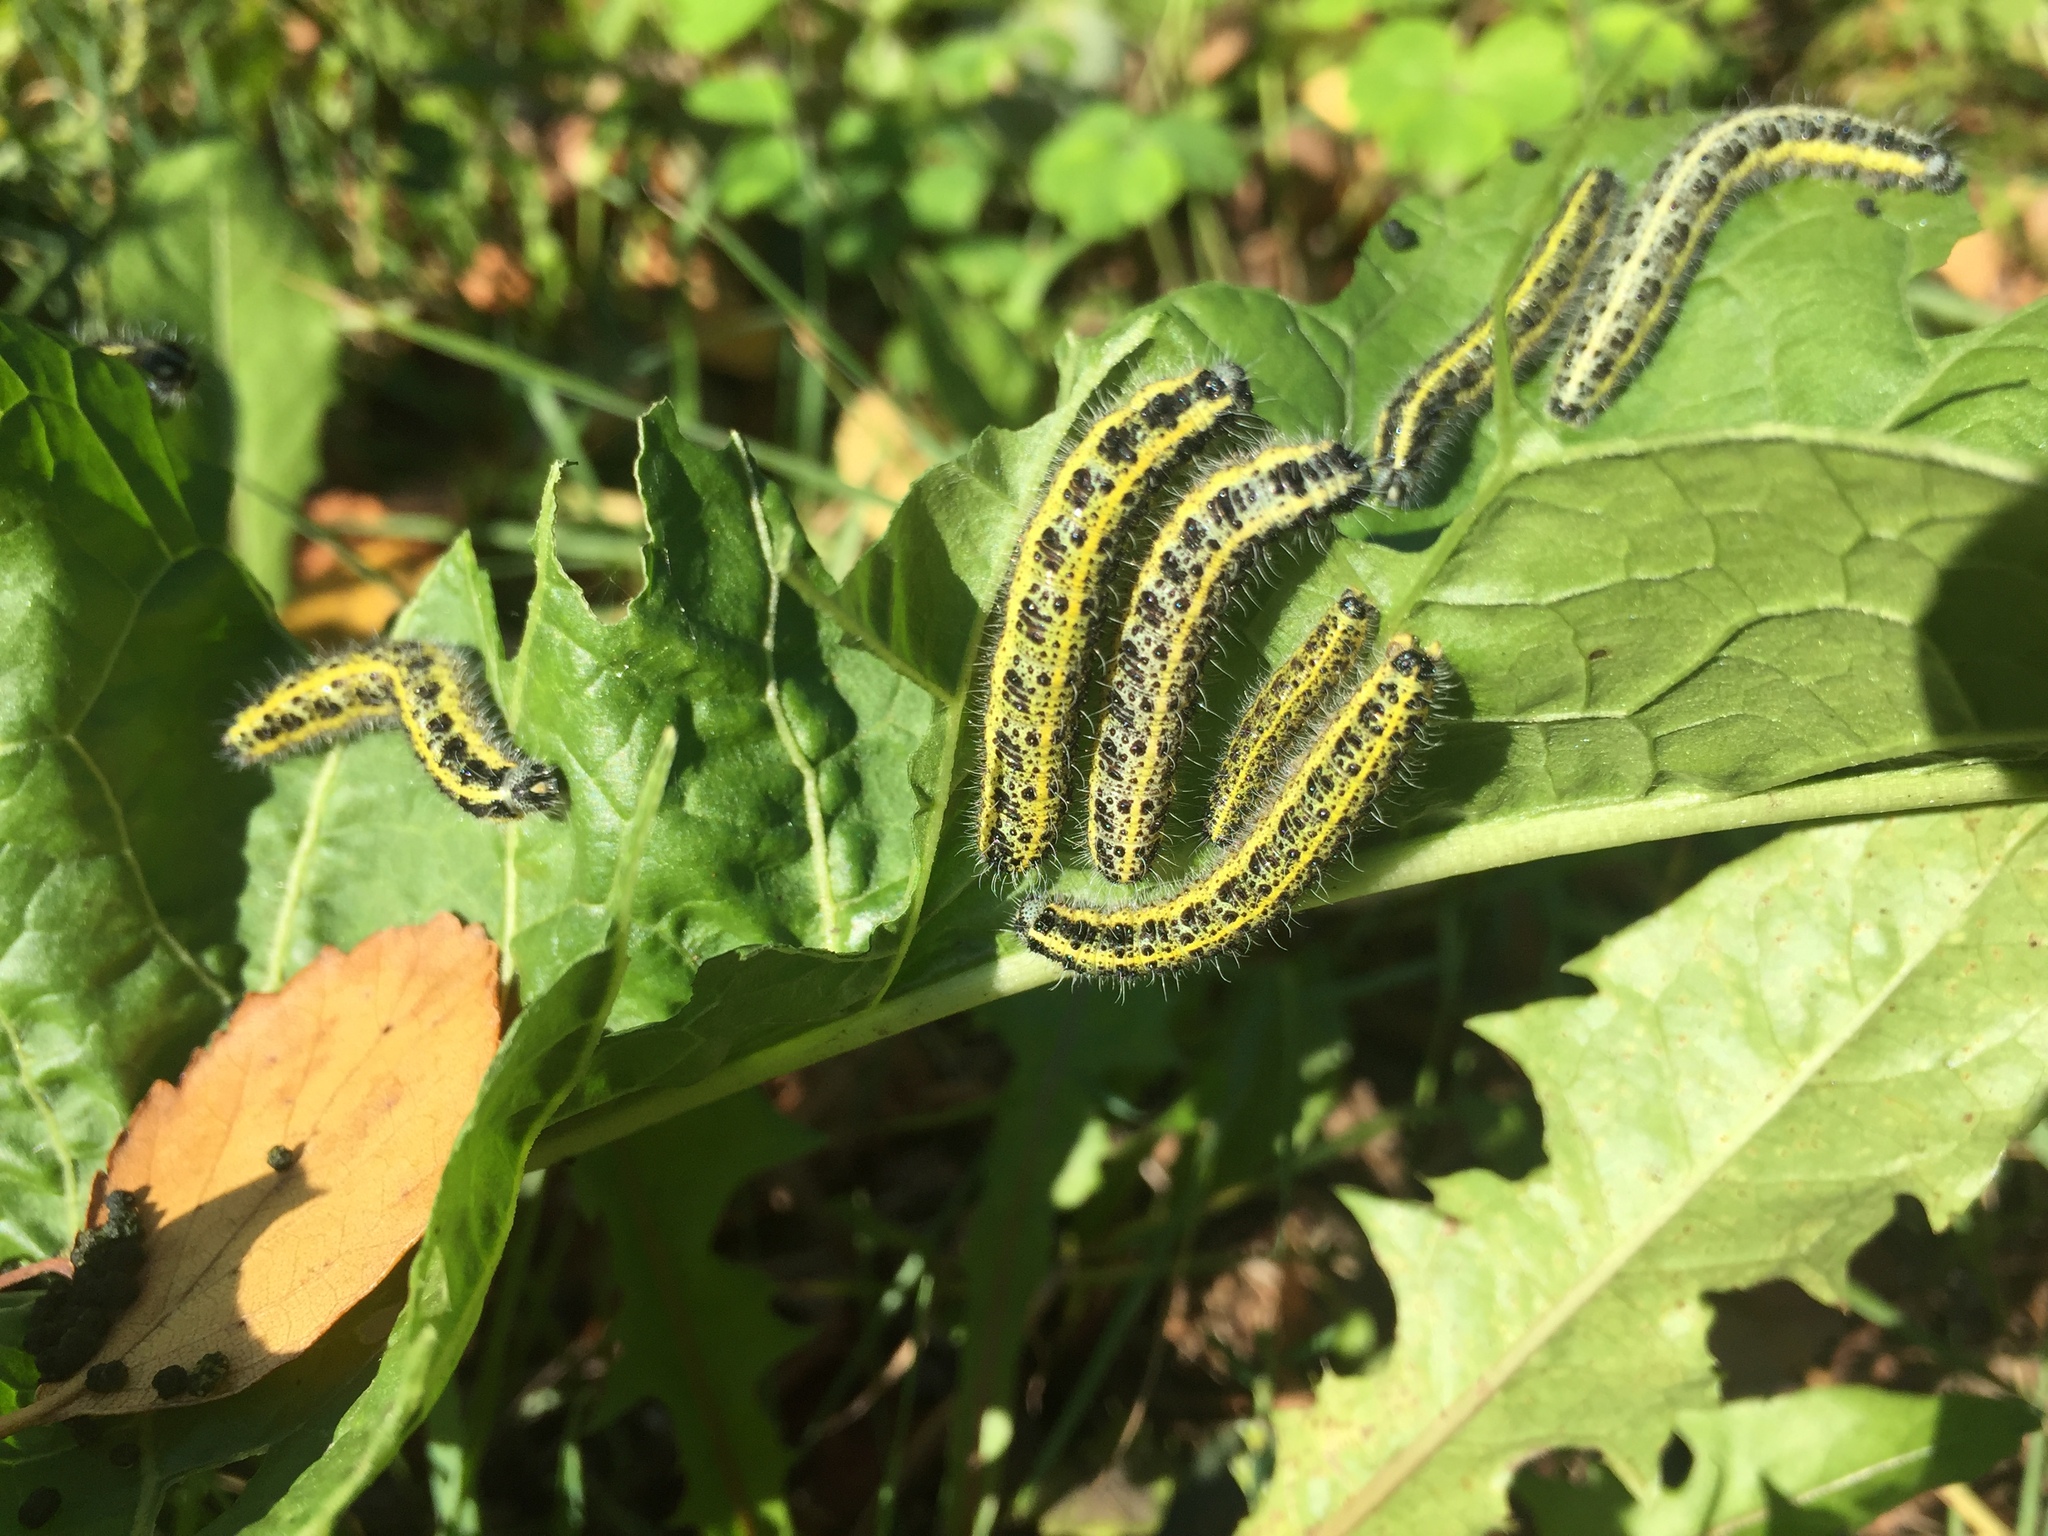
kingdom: Animalia
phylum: Arthropoda
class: Insecta
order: Lepidoptera
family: Pieridae
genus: Pieris
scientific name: Pieris brassicae
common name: Large white
